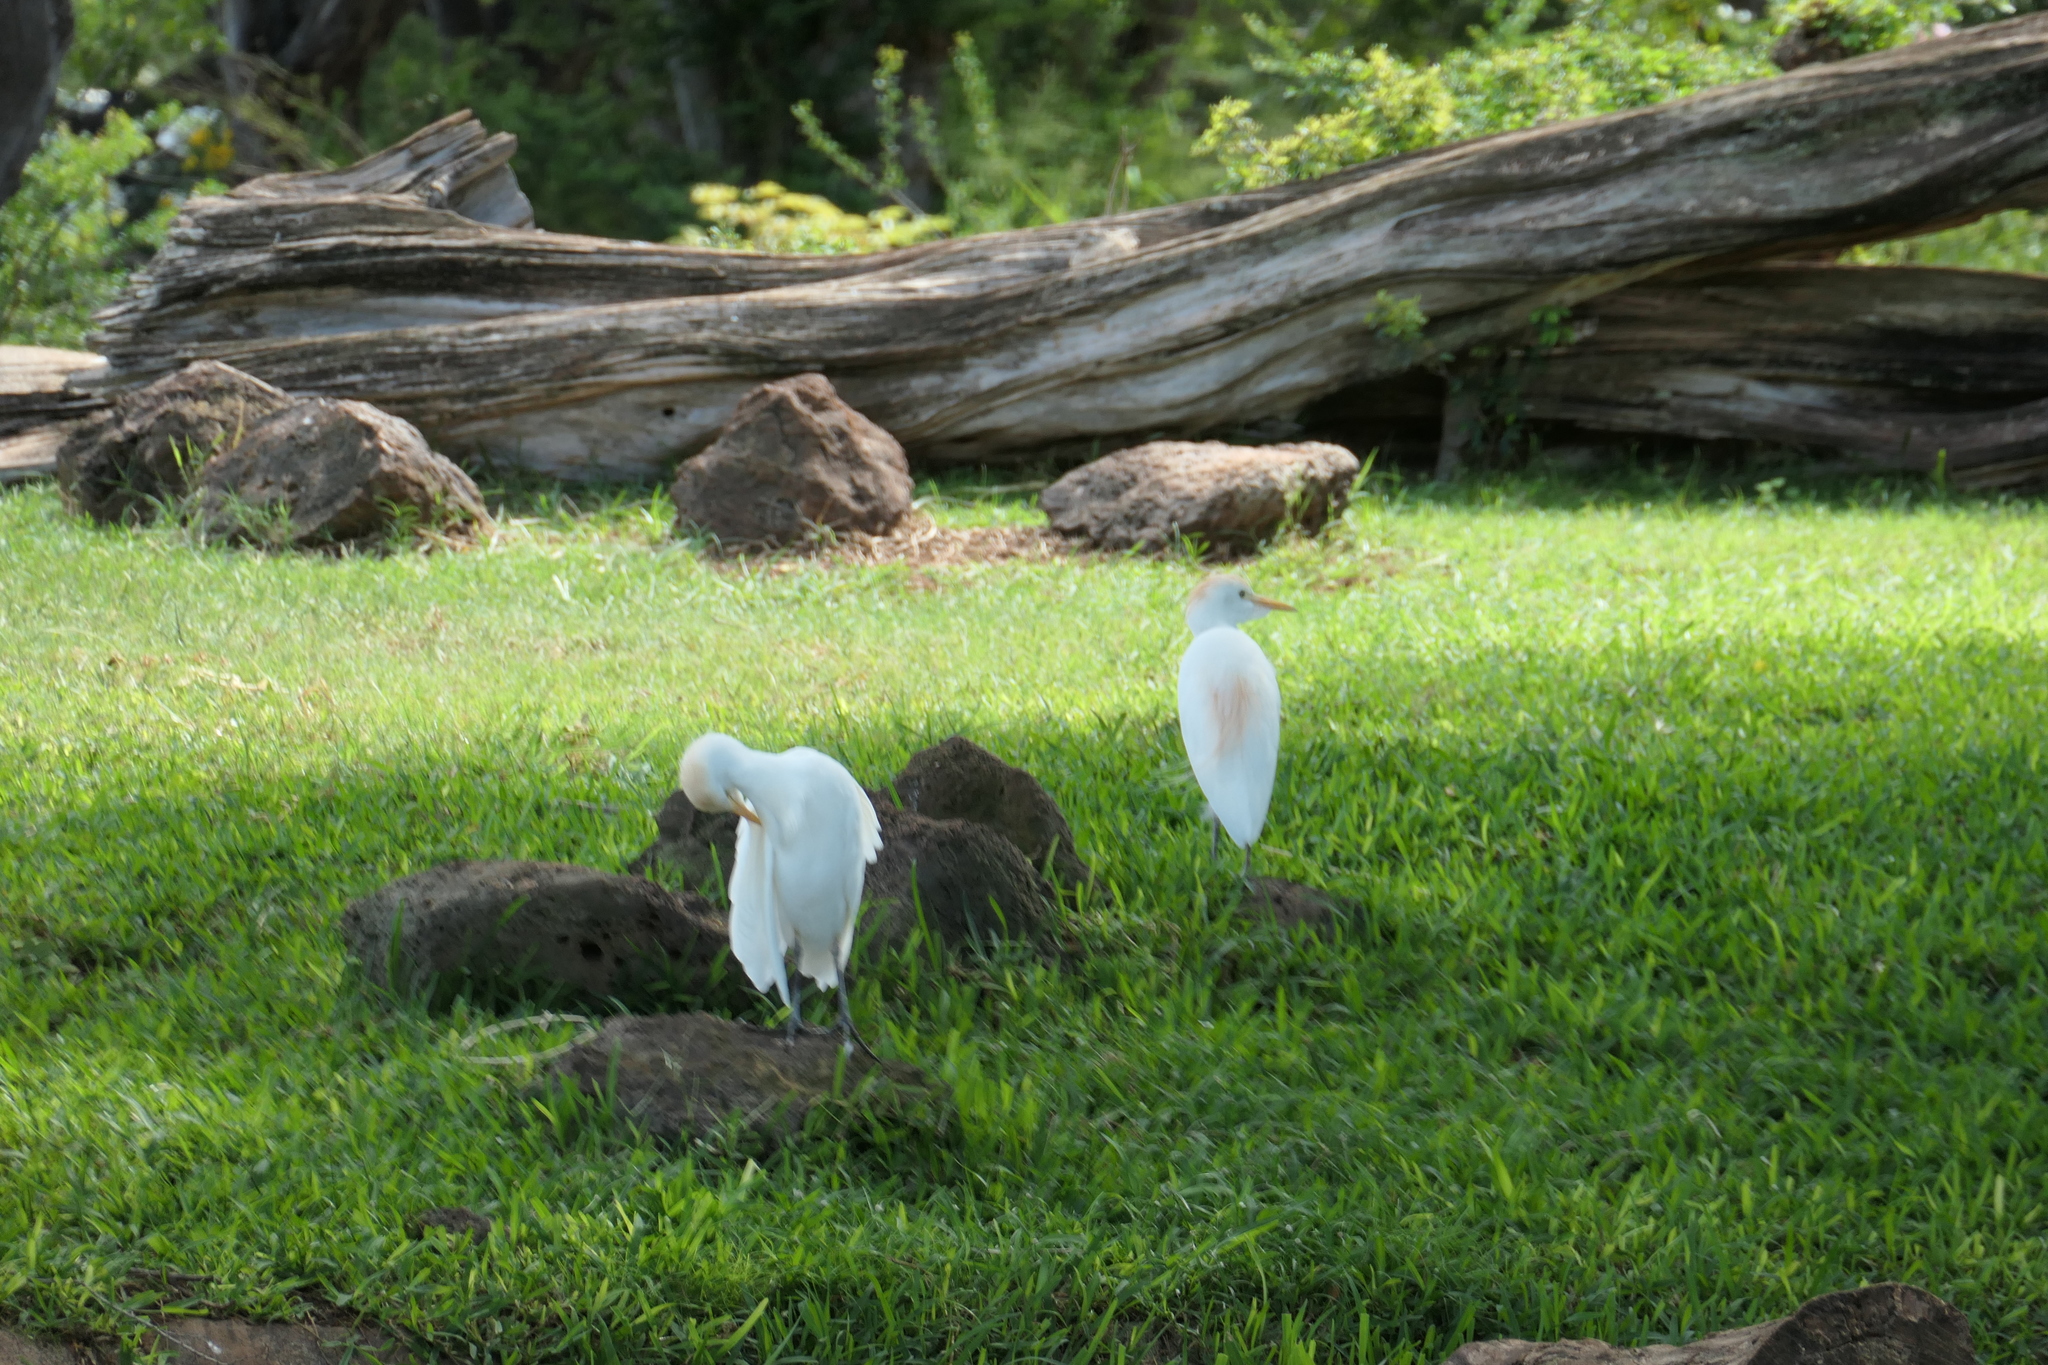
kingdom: Animalia
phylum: Chordata
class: Aves
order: Pelecaniformes
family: Ardeidae
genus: Bubulcus
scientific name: Bubulcus ibis
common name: Cattle egret
